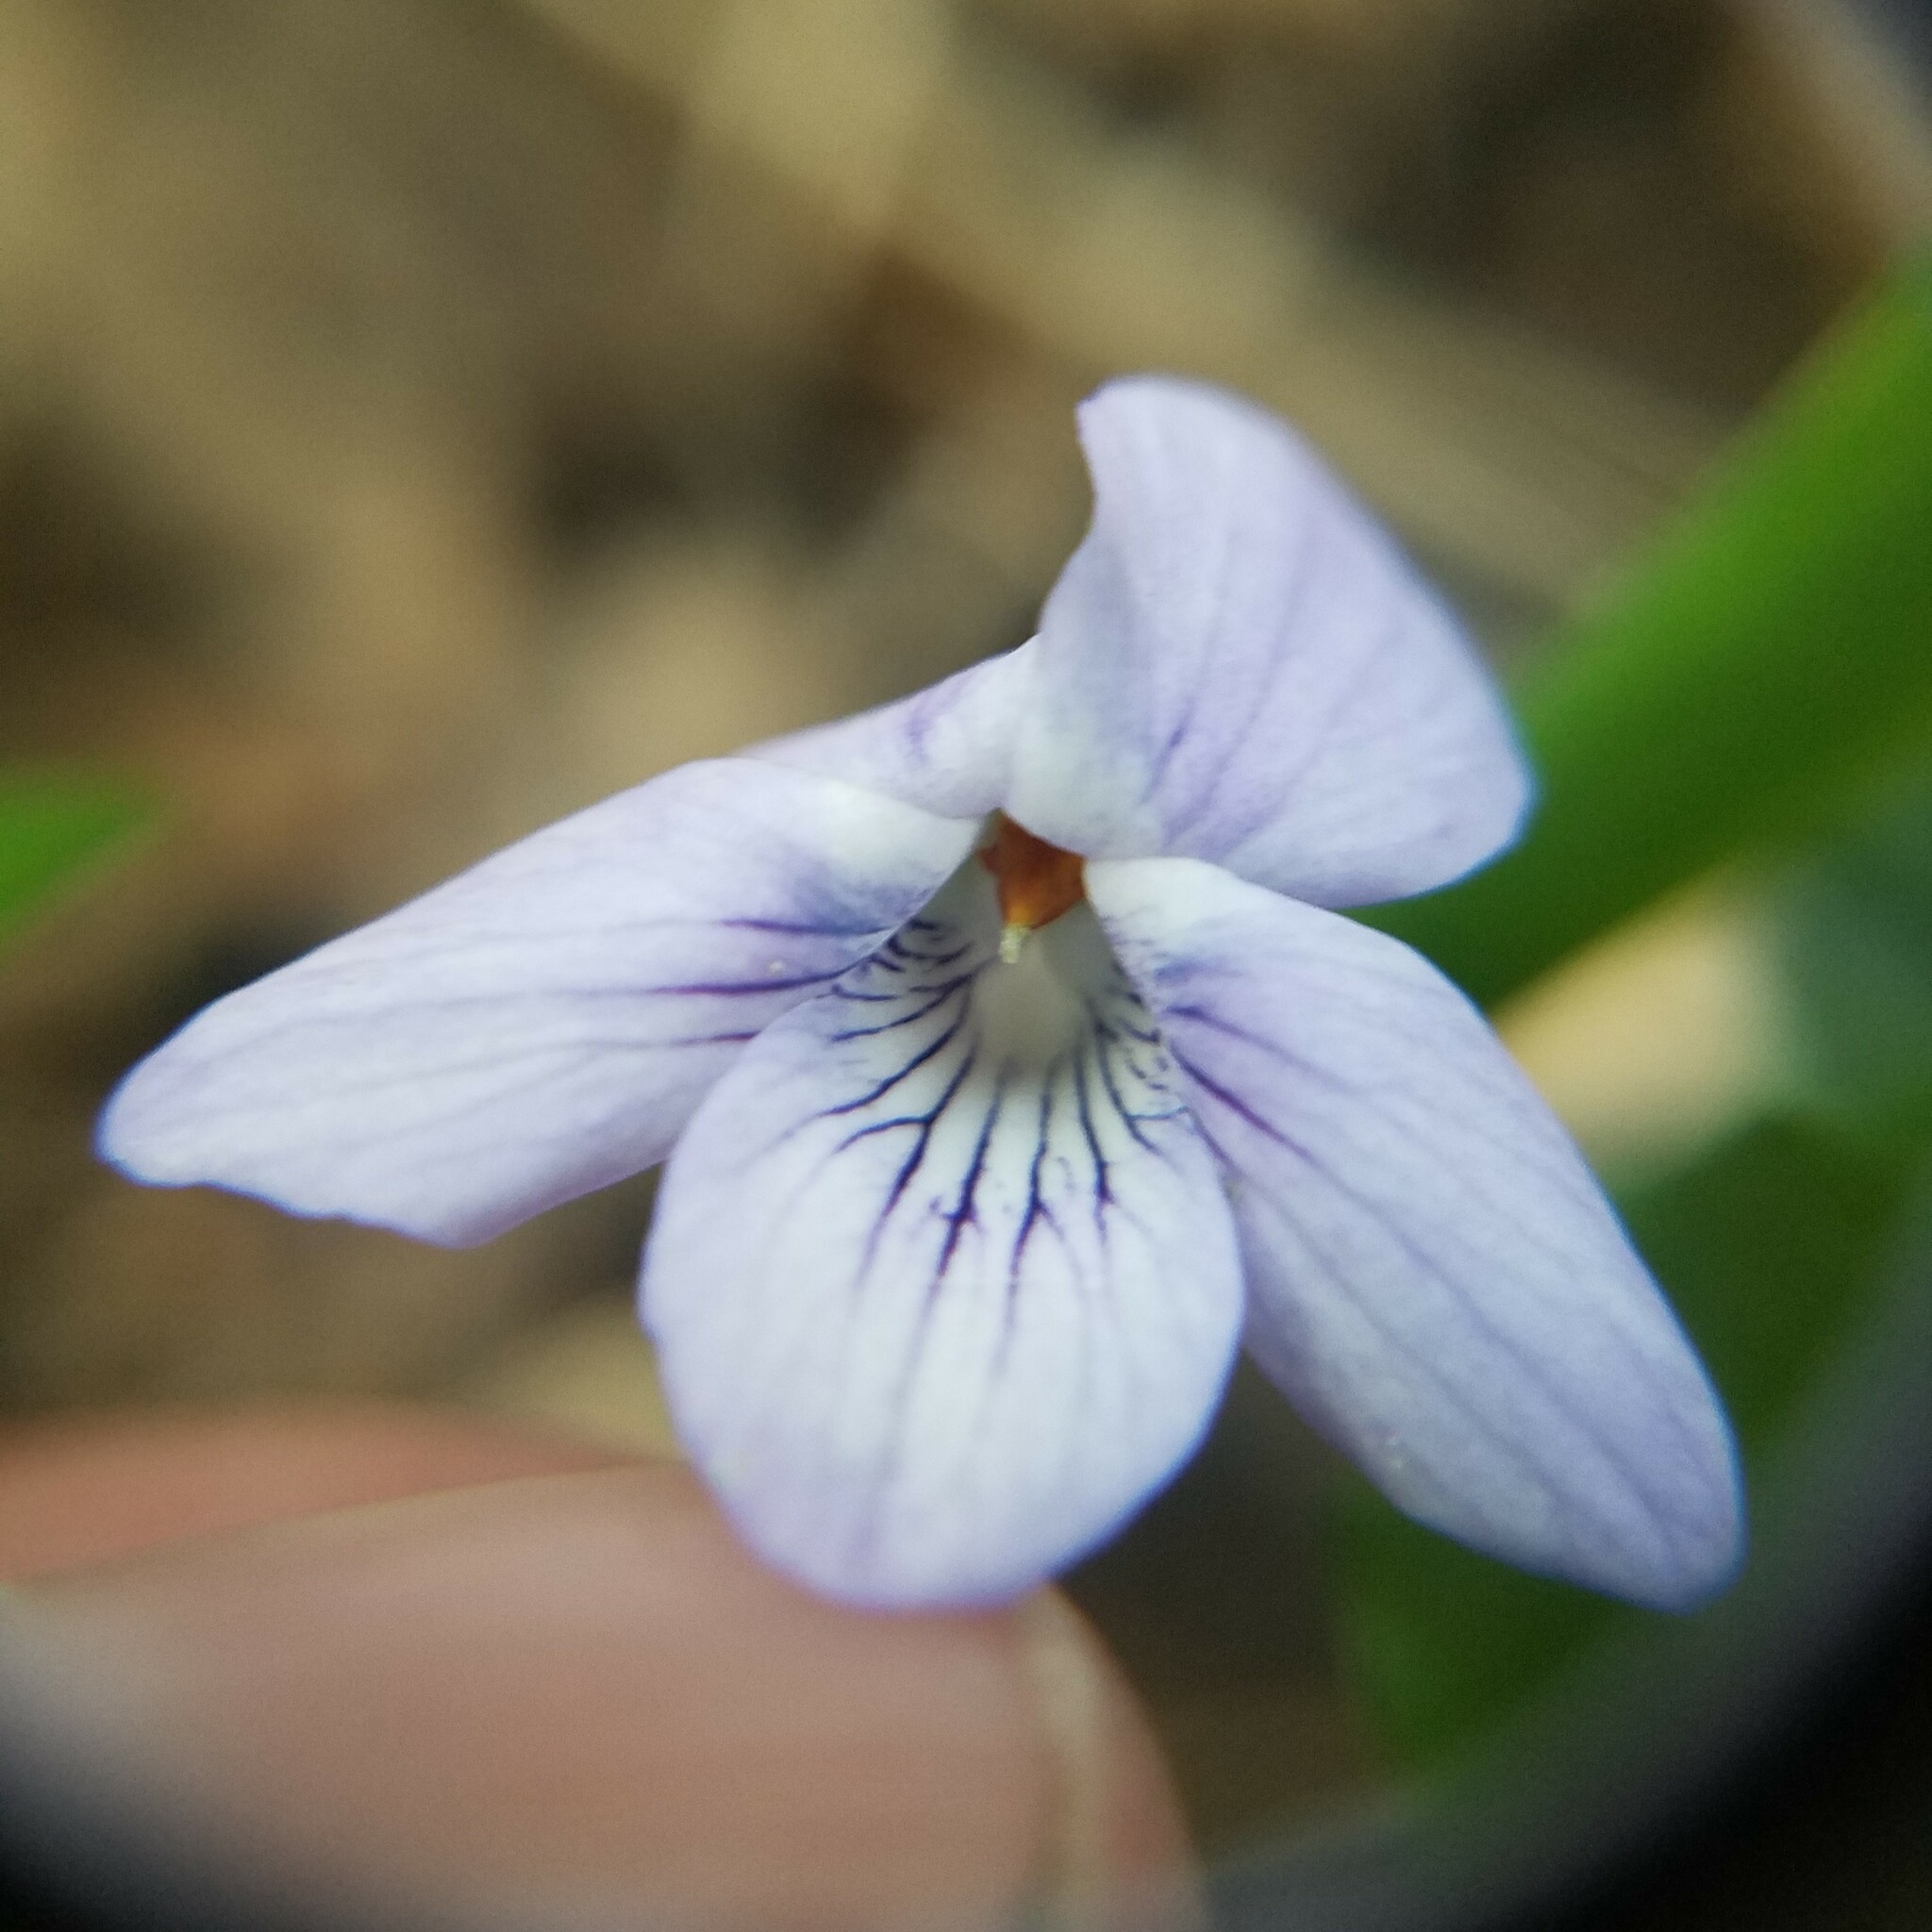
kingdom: Plantae
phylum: Tracheophyta
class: Magnoliopsida
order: Malpighiales
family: Violaceae
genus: Viola
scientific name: Viola rostrata
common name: Long-spur violet
